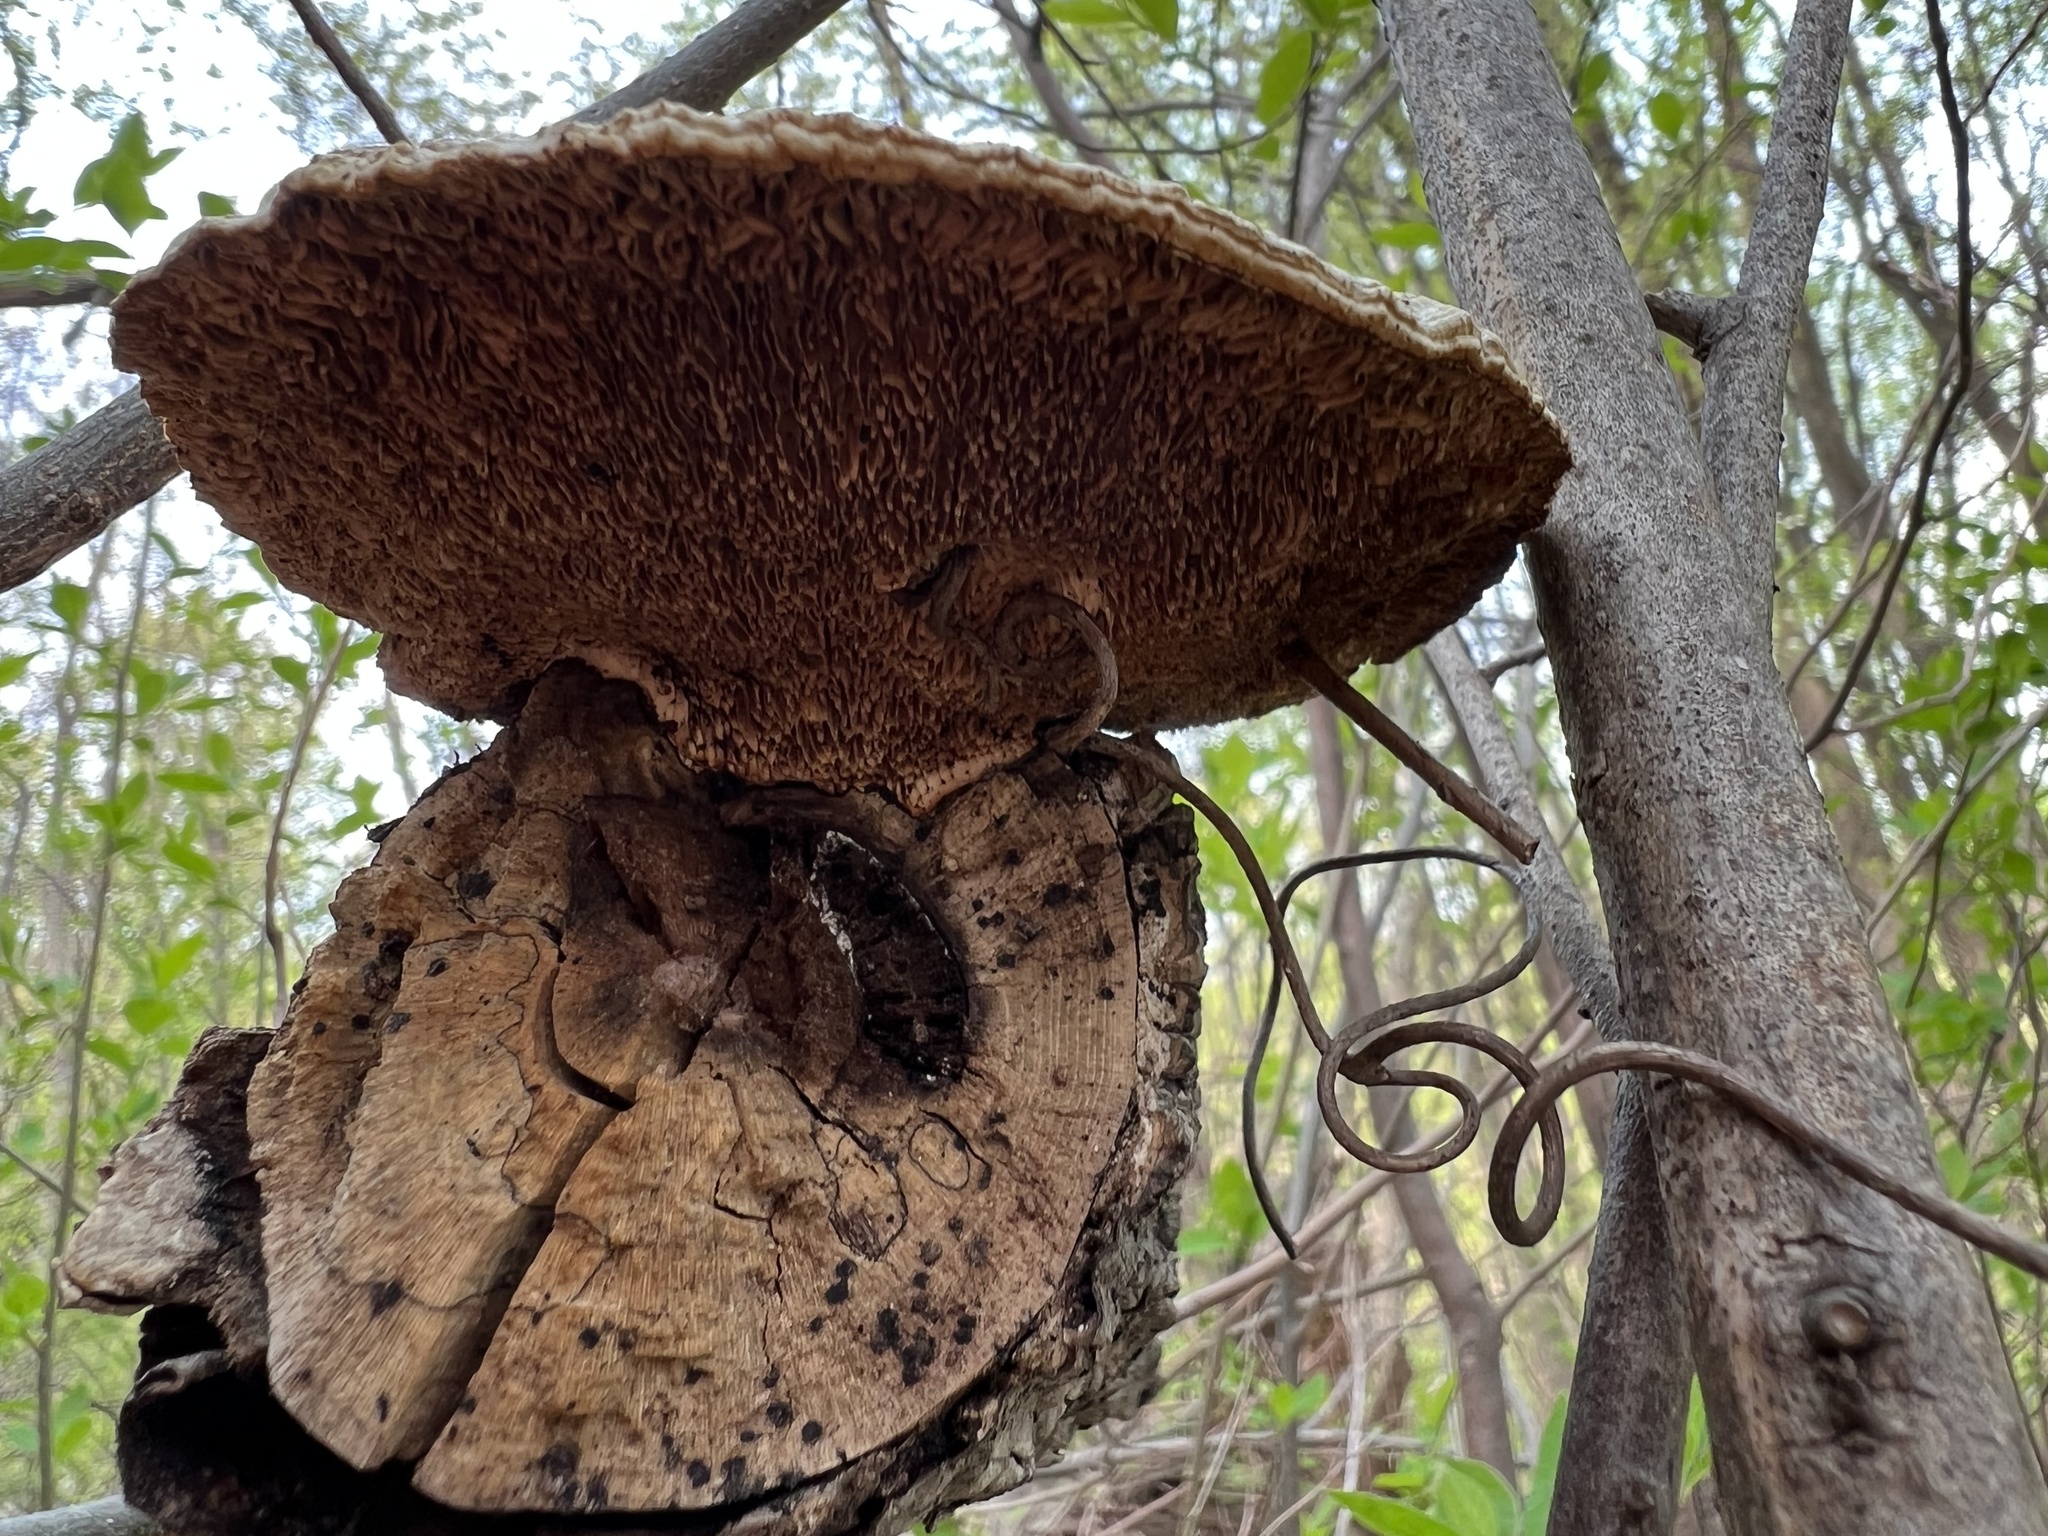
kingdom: Fungi
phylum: Basidiomycota
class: Agaricomycetes
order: Polyporales
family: Polyporaceae
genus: Daedaleopsis
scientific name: Daedaleopsis confragosa
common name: Blushing bracket
